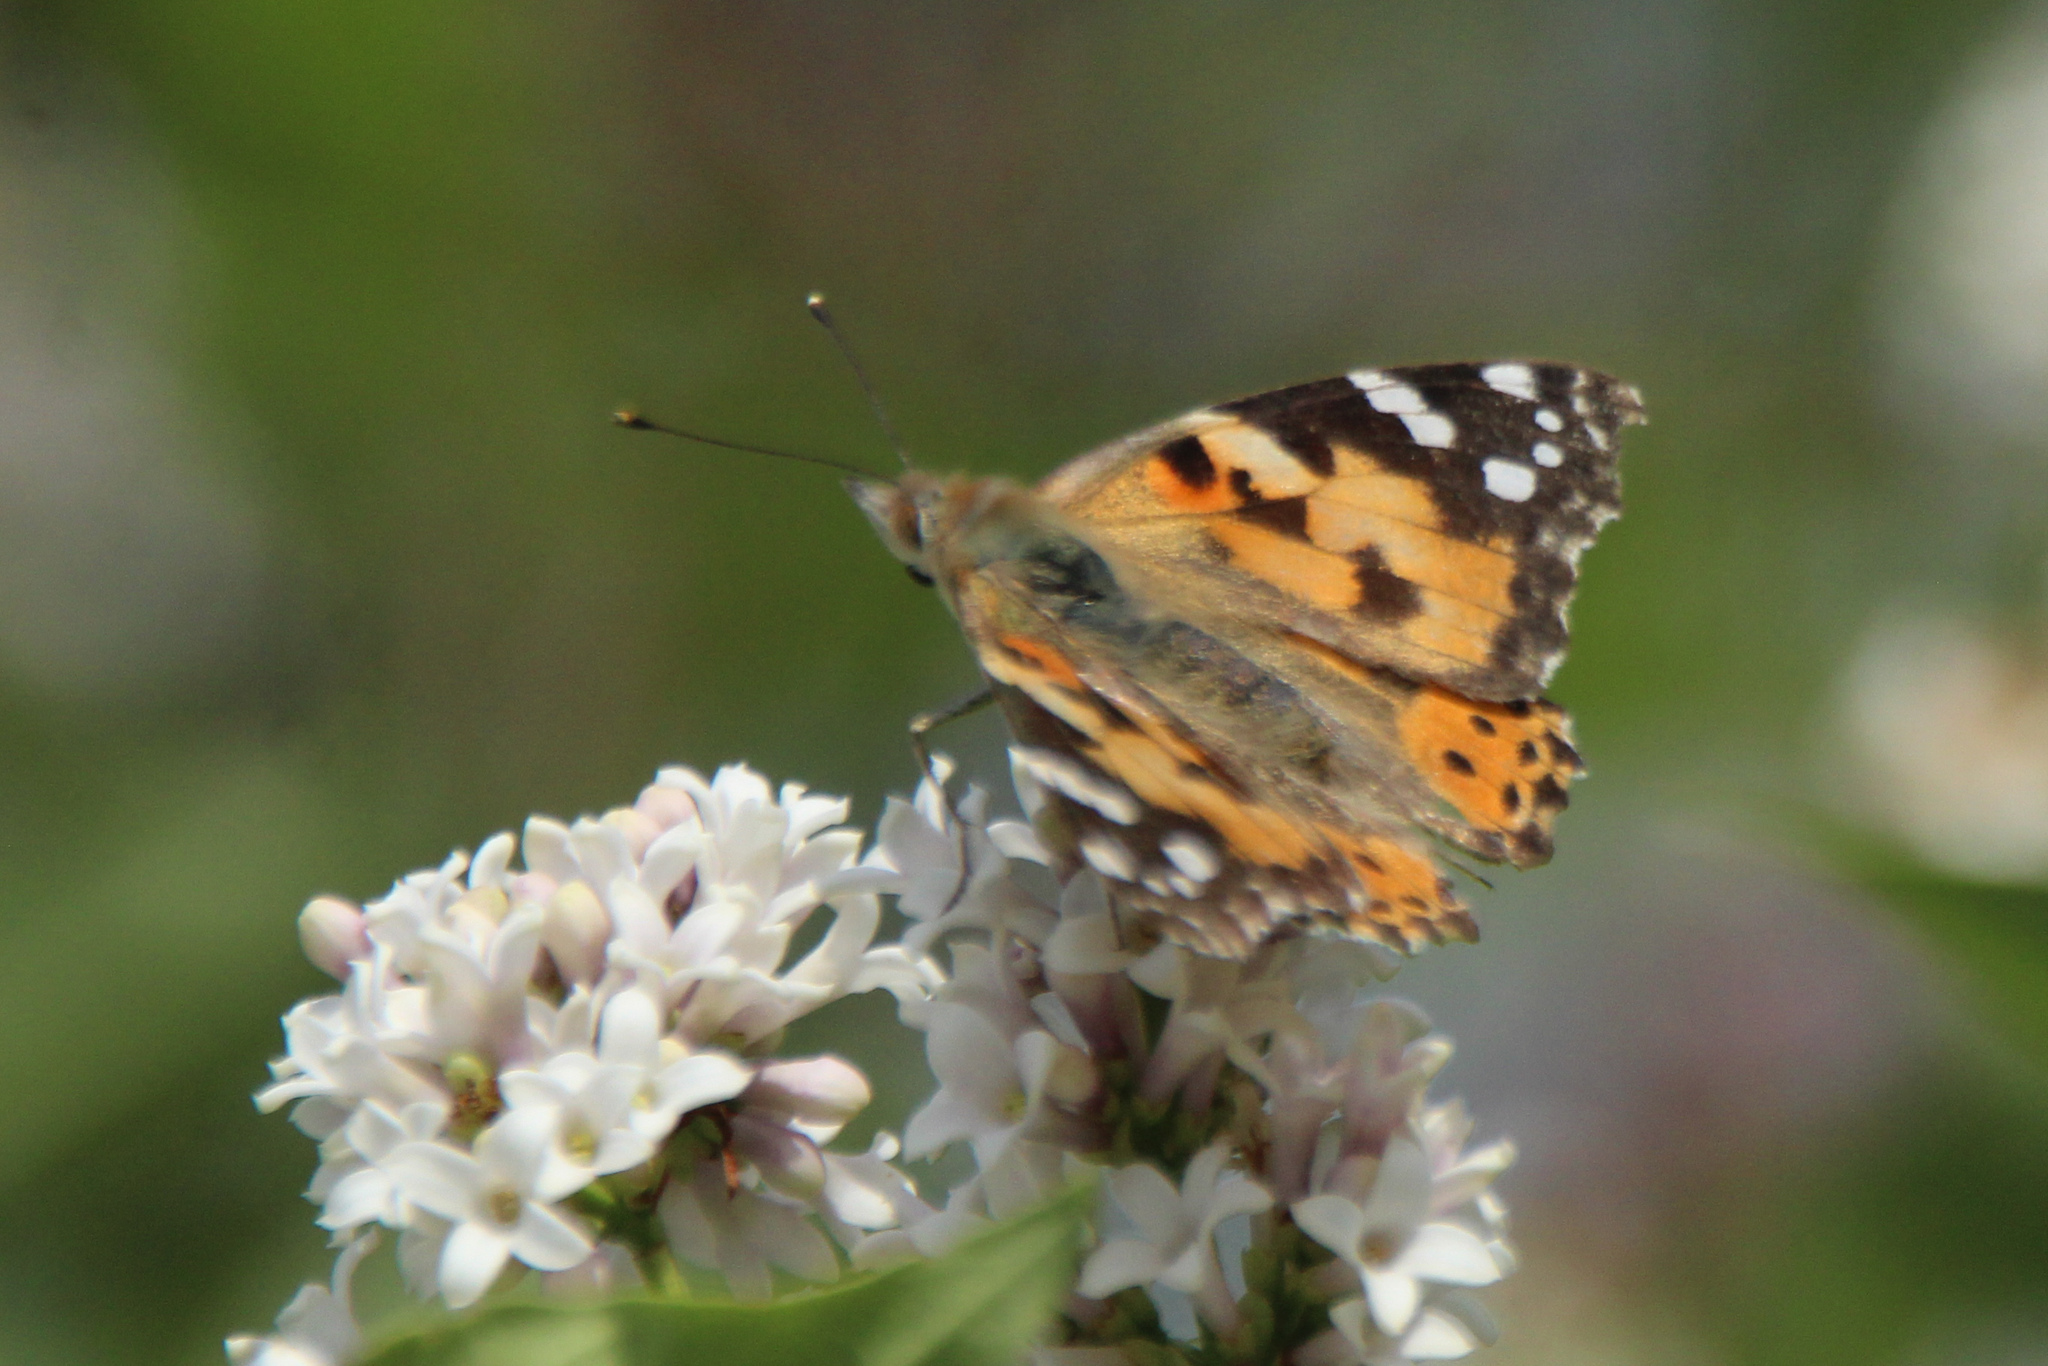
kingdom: Animalia
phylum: Arthropoda
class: Insecta
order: Lepidoptera
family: Nymphalidae
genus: Vanessa
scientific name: Vanessa cardui
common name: Painted lady
